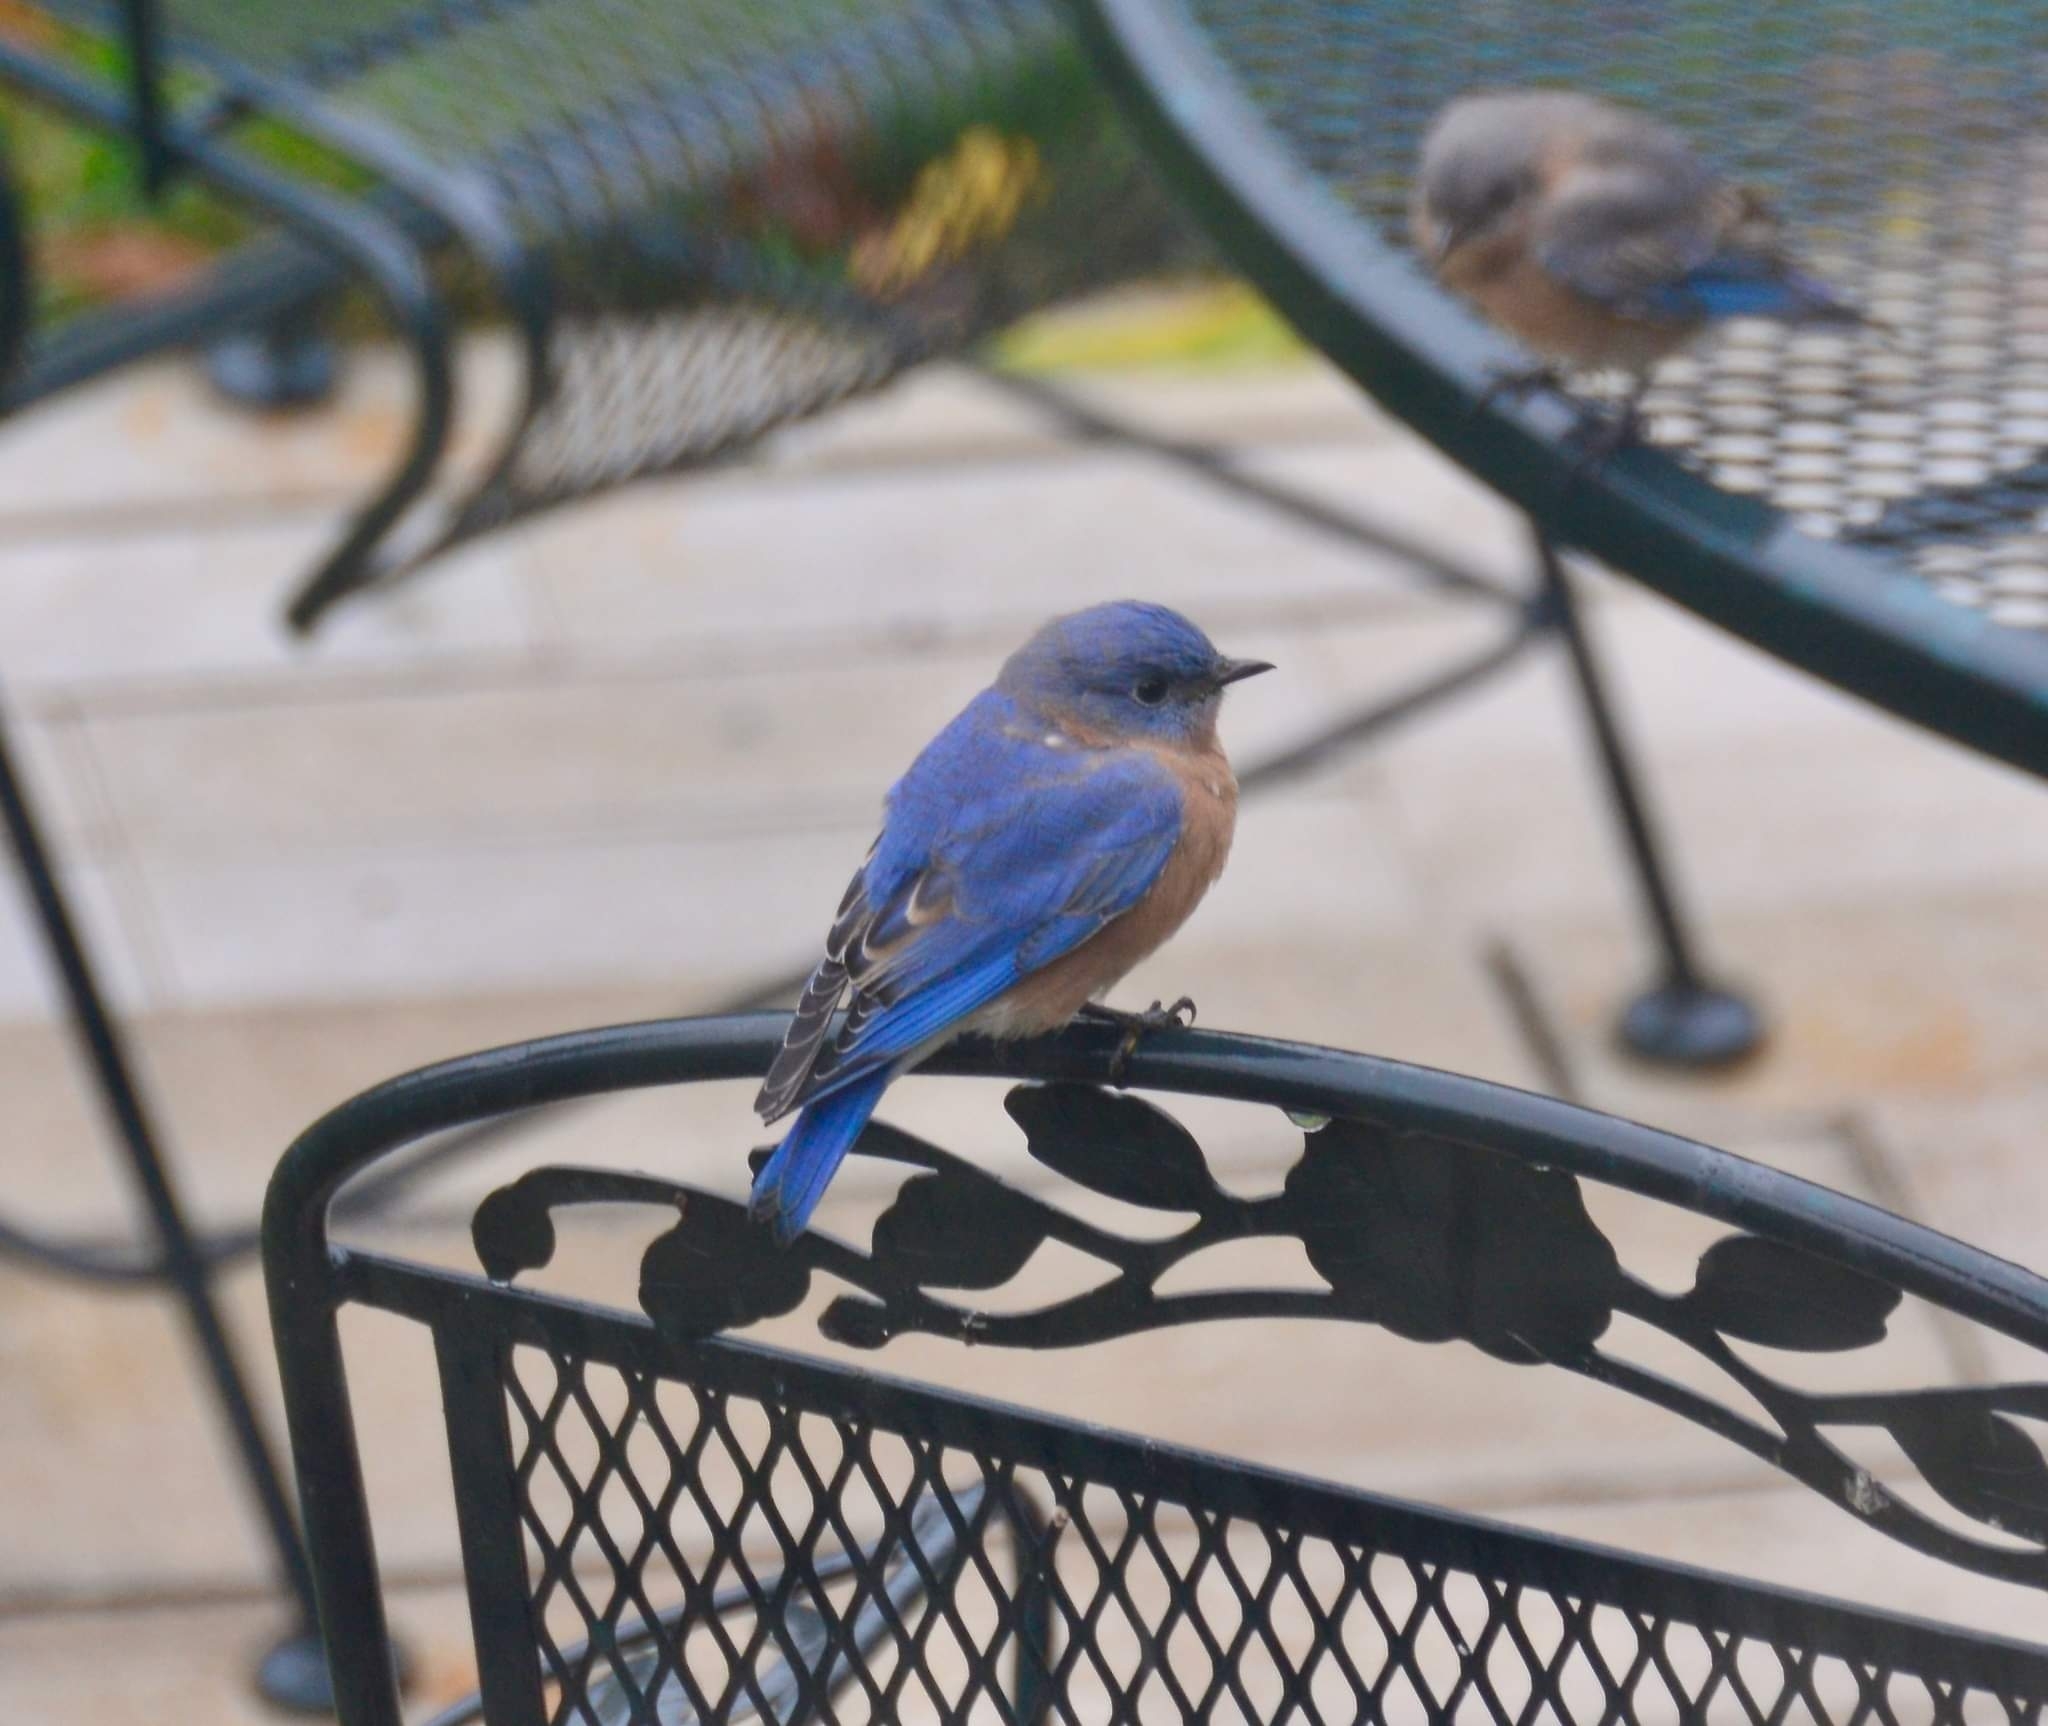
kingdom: Animalia
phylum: Chordata
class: Aves
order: Passeriformes
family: Turdidae
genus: Sialia
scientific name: Sialia sialis
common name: Eastern bluebird
